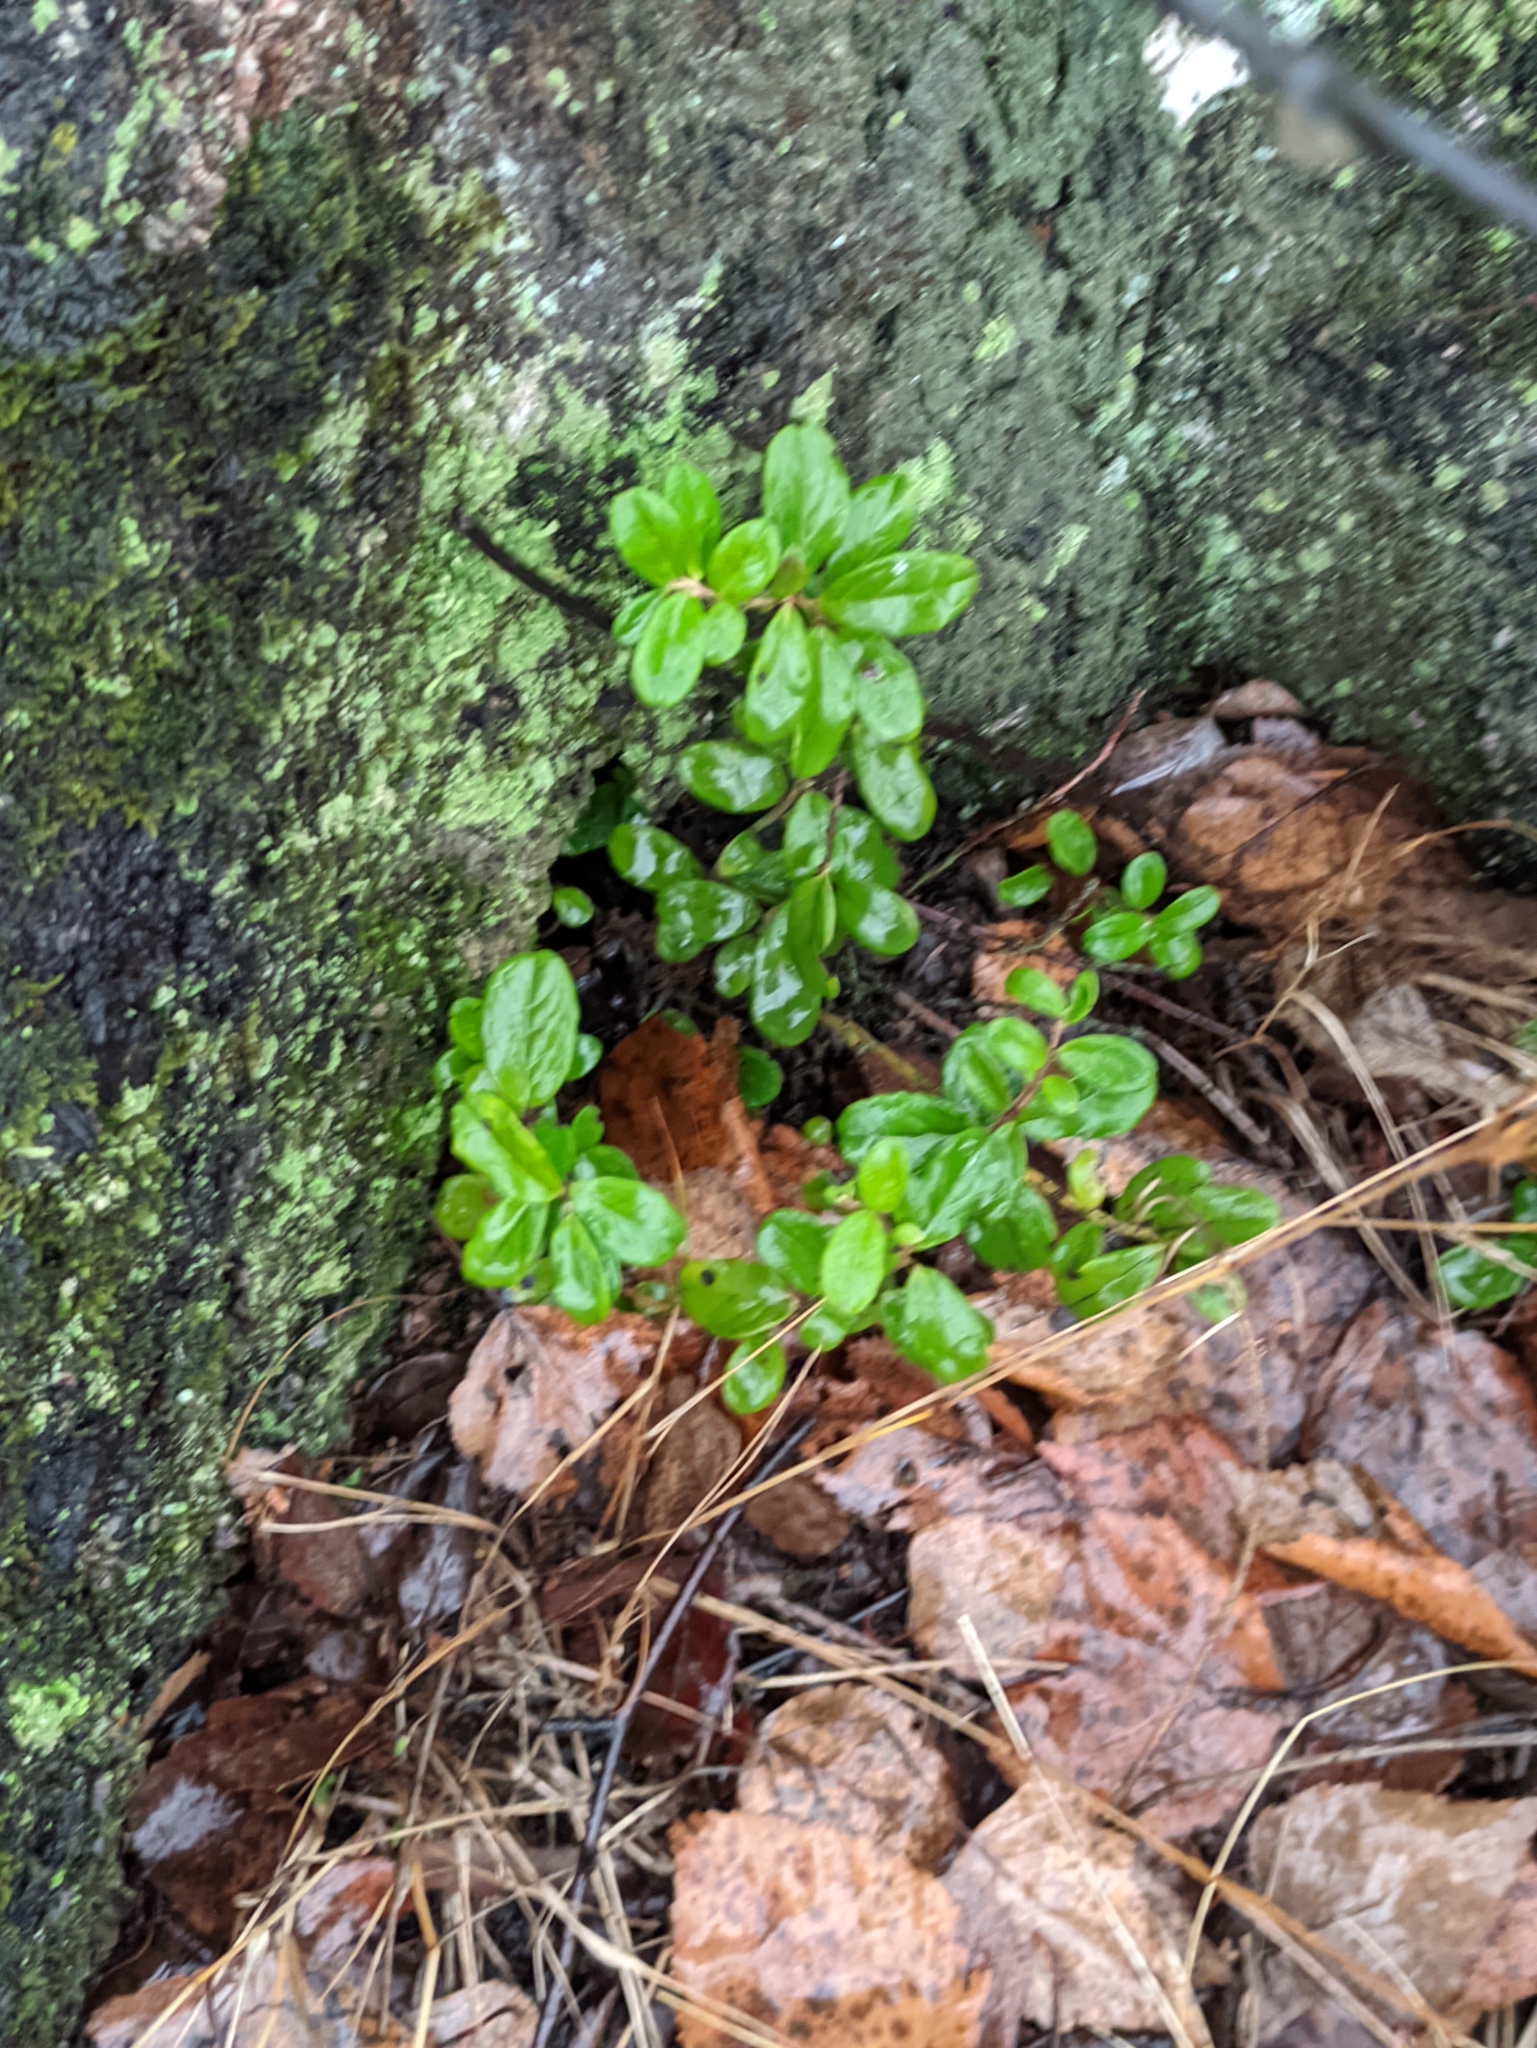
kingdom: Plantae
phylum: Tracheophyta
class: Magnoliopsida
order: Ericales
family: Ericaceae
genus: Vaccinium
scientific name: Vaccinium vitis-idaea
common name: Cowberry
